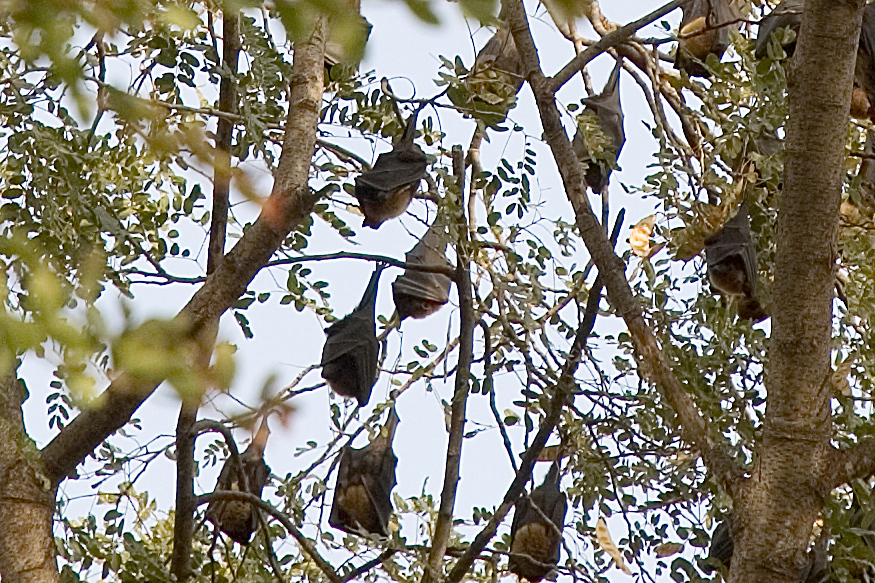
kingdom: Animalia
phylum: Chordata
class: Mammalia
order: Chiroptera
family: Pteropodidae
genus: Pteropus
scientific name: Pteropus vampyrus
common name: Large flying fox
